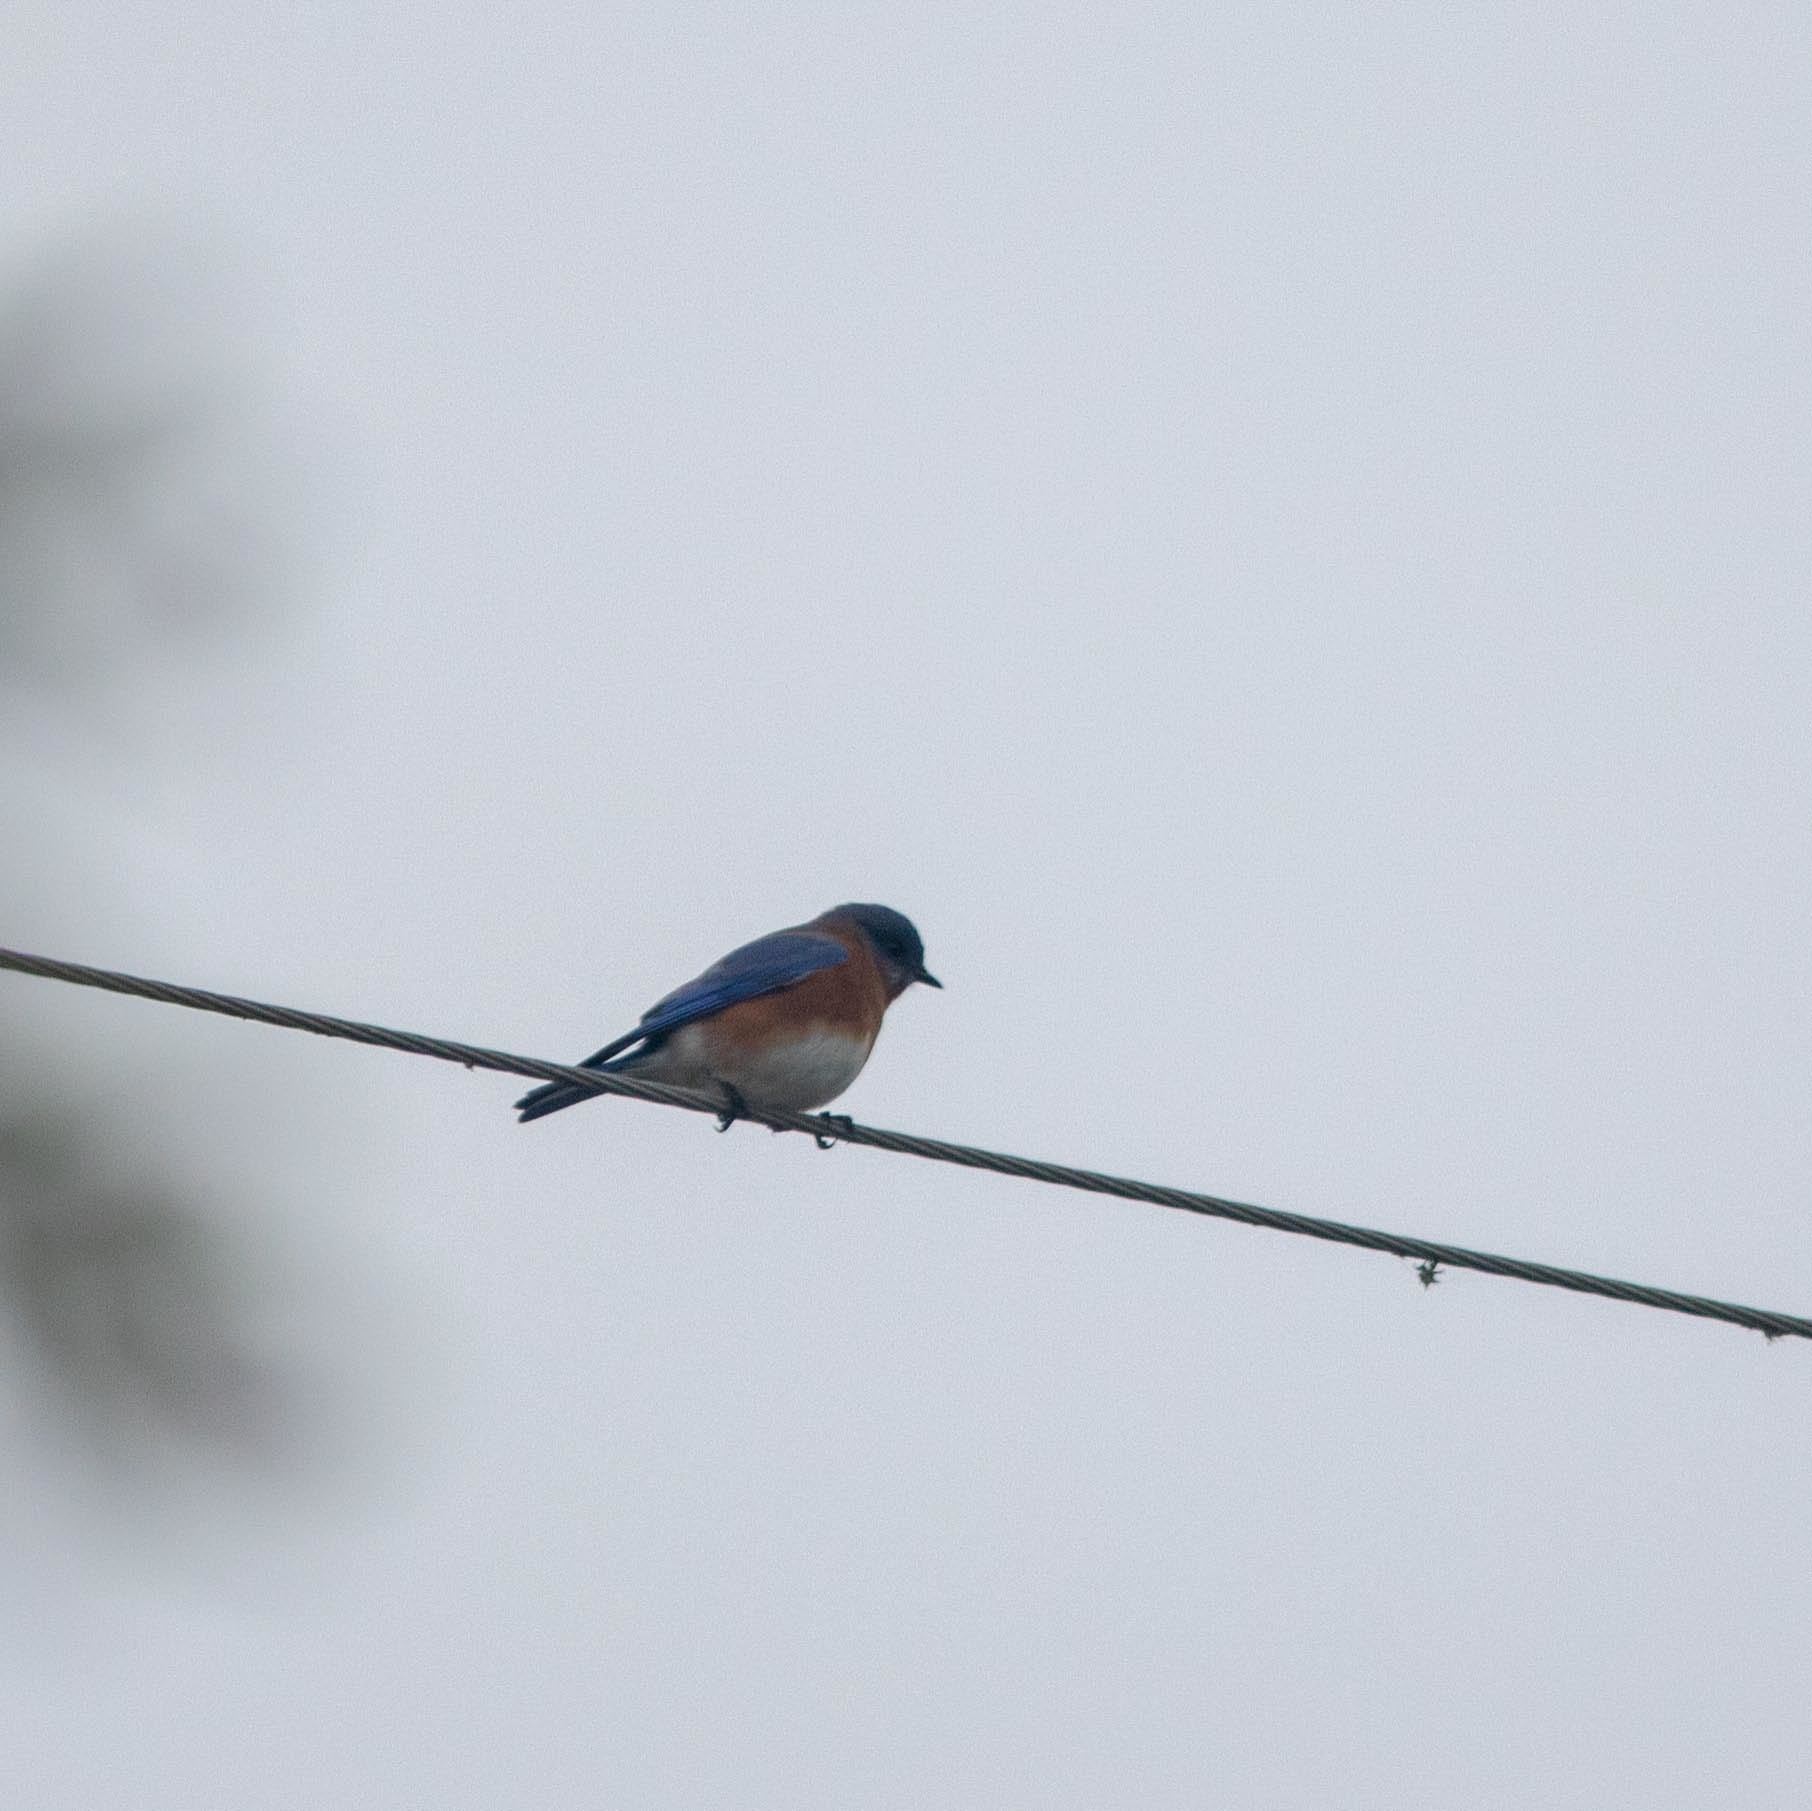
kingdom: Animalia
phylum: Chordata
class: Aves
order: Passeriformes
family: Turdidae
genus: Sialia
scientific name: Sialia sialis
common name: Eastern bluebird
